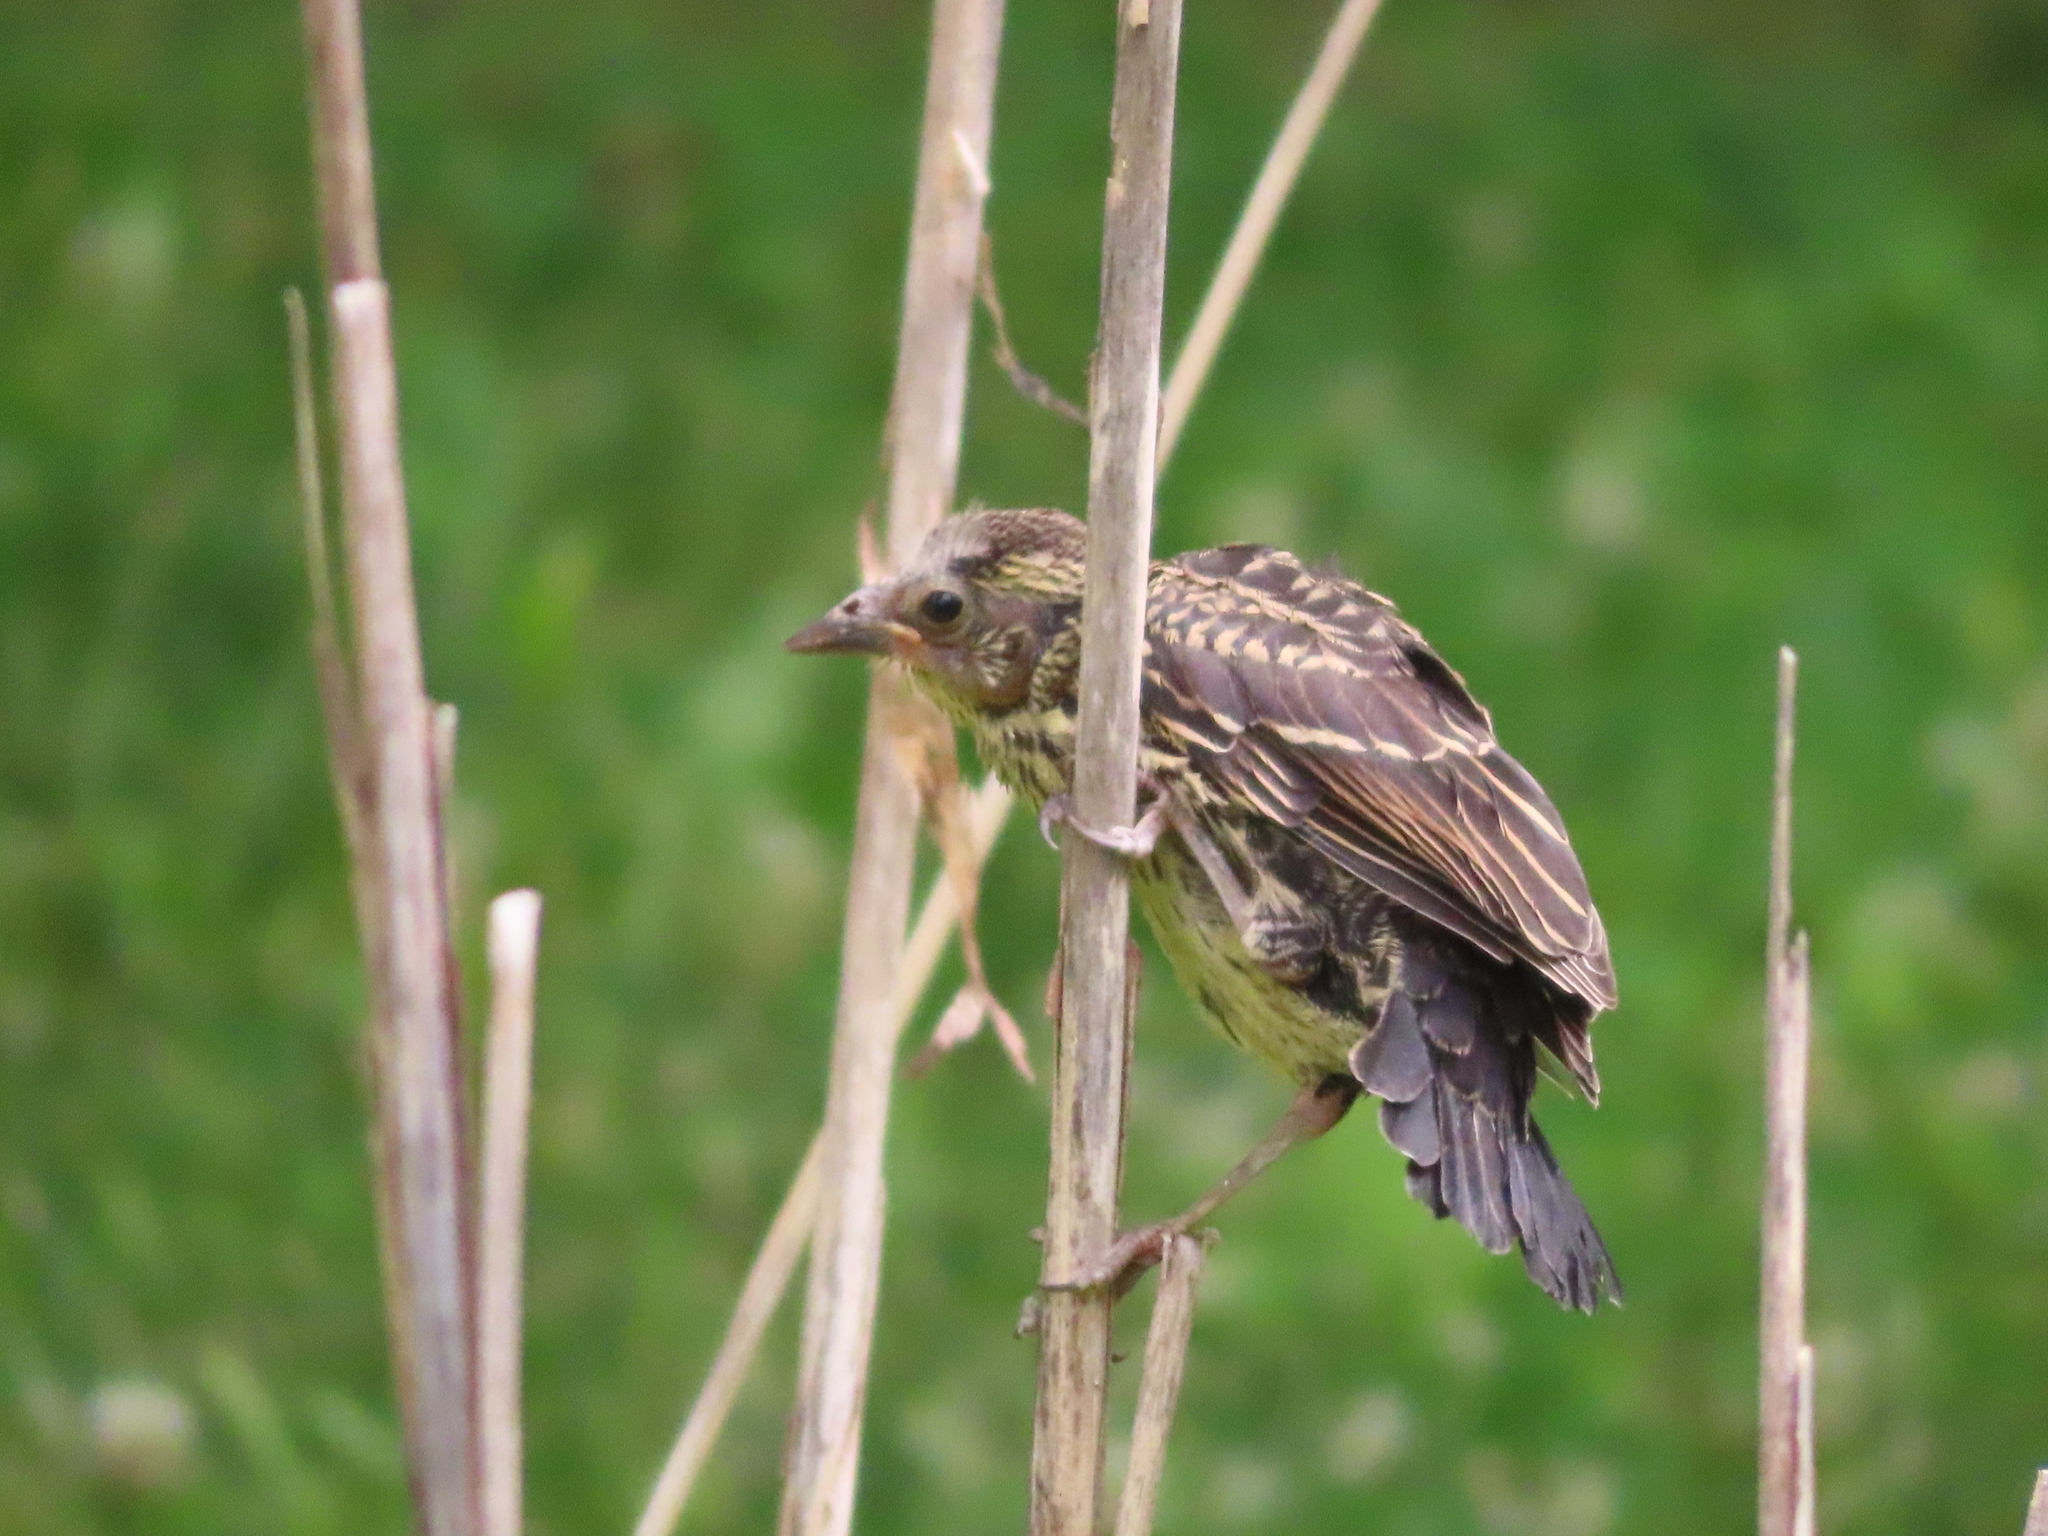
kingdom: Animalia
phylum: Chordata
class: Aves
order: Passeriformes
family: Icteridae
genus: Agelaius
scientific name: Agelaius phoeniceus
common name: Red-winged blackbird
